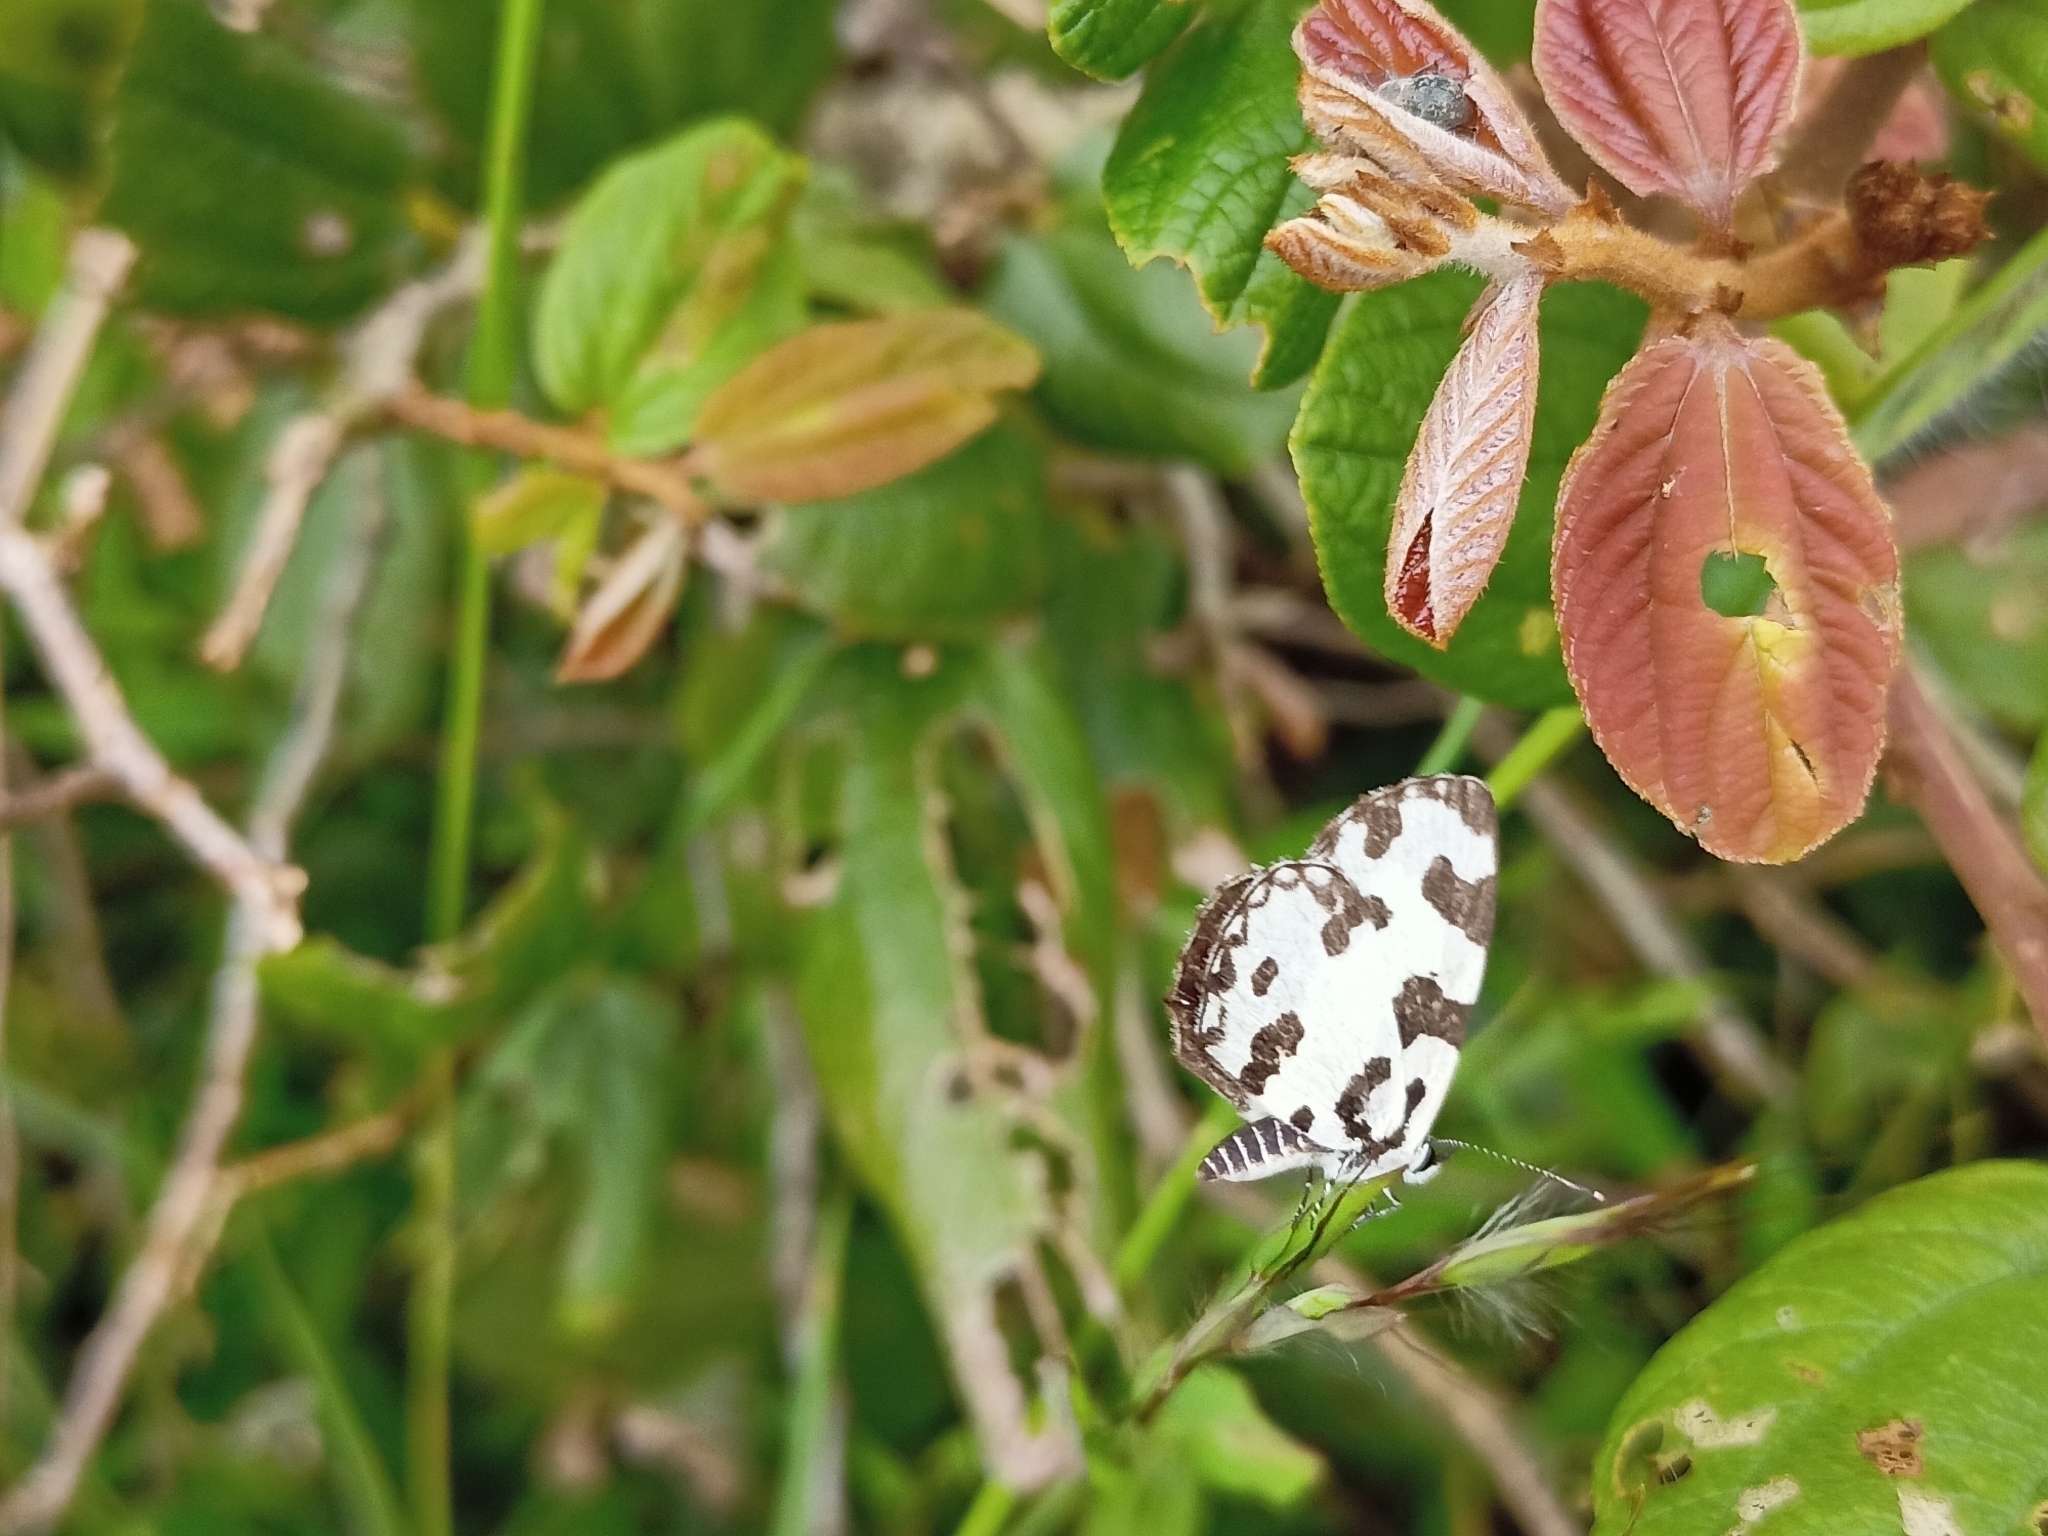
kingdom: Animalia
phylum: Arthropoda
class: Insecta
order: Lepidoptera
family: Lycaenidae
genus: Caleta
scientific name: Caleta decidia
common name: Angled pierrot
